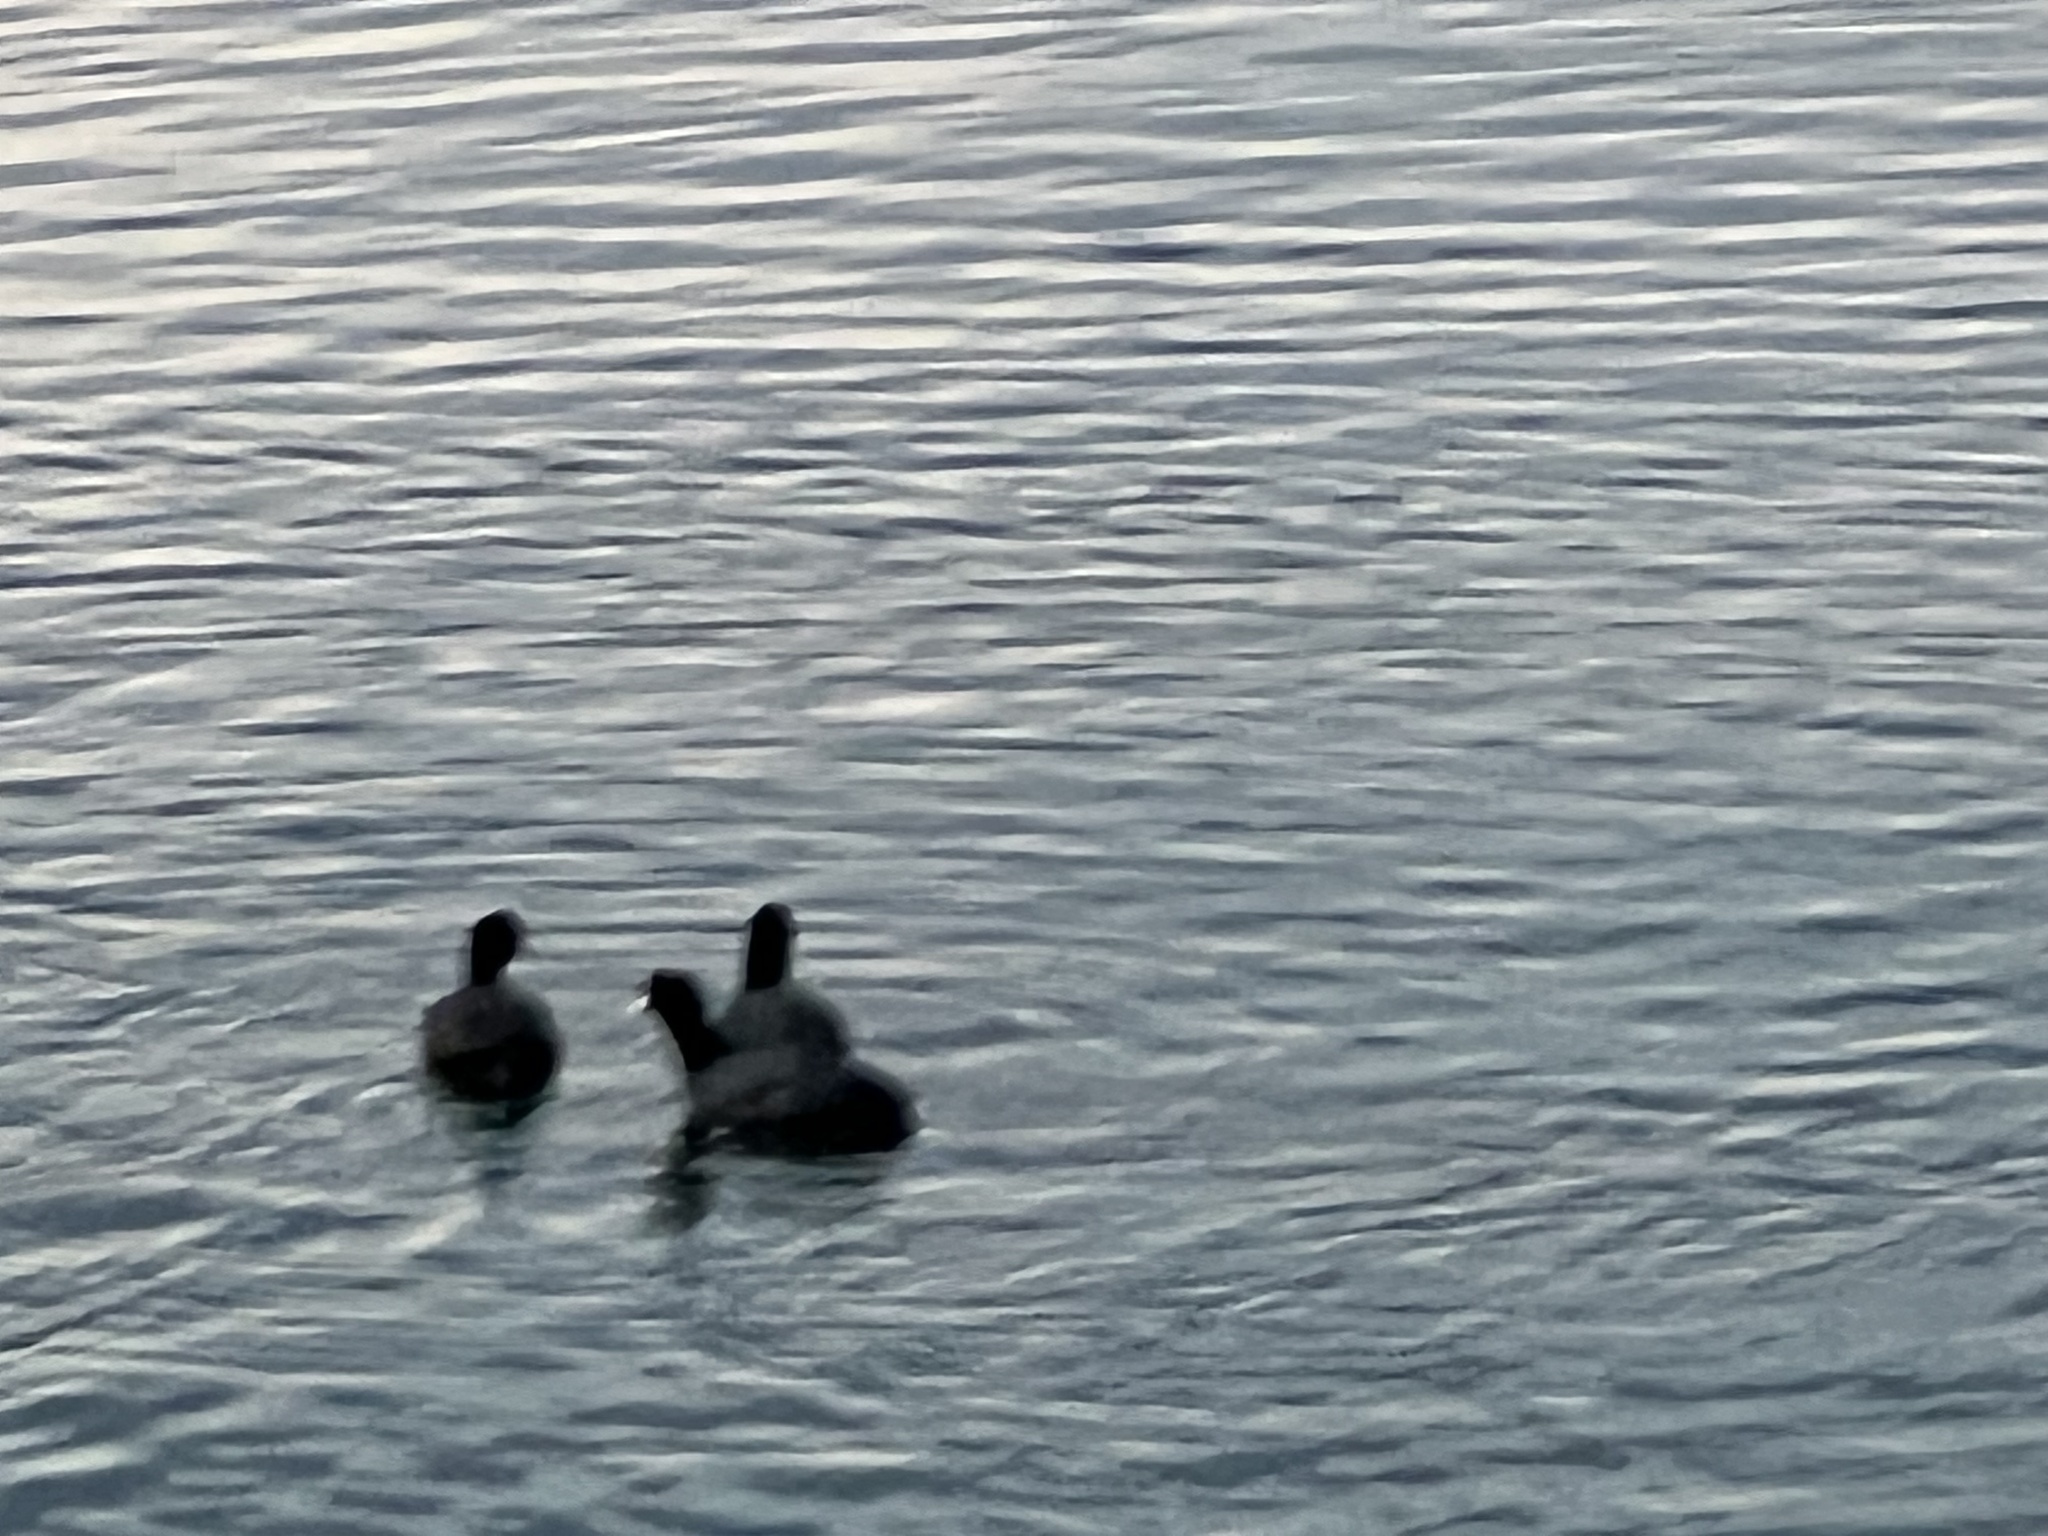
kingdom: Animalia
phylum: Chordata
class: Aves
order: Gruiformes
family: Rallidae
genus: Fulica
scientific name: Fulica atra
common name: Eurasian coot
